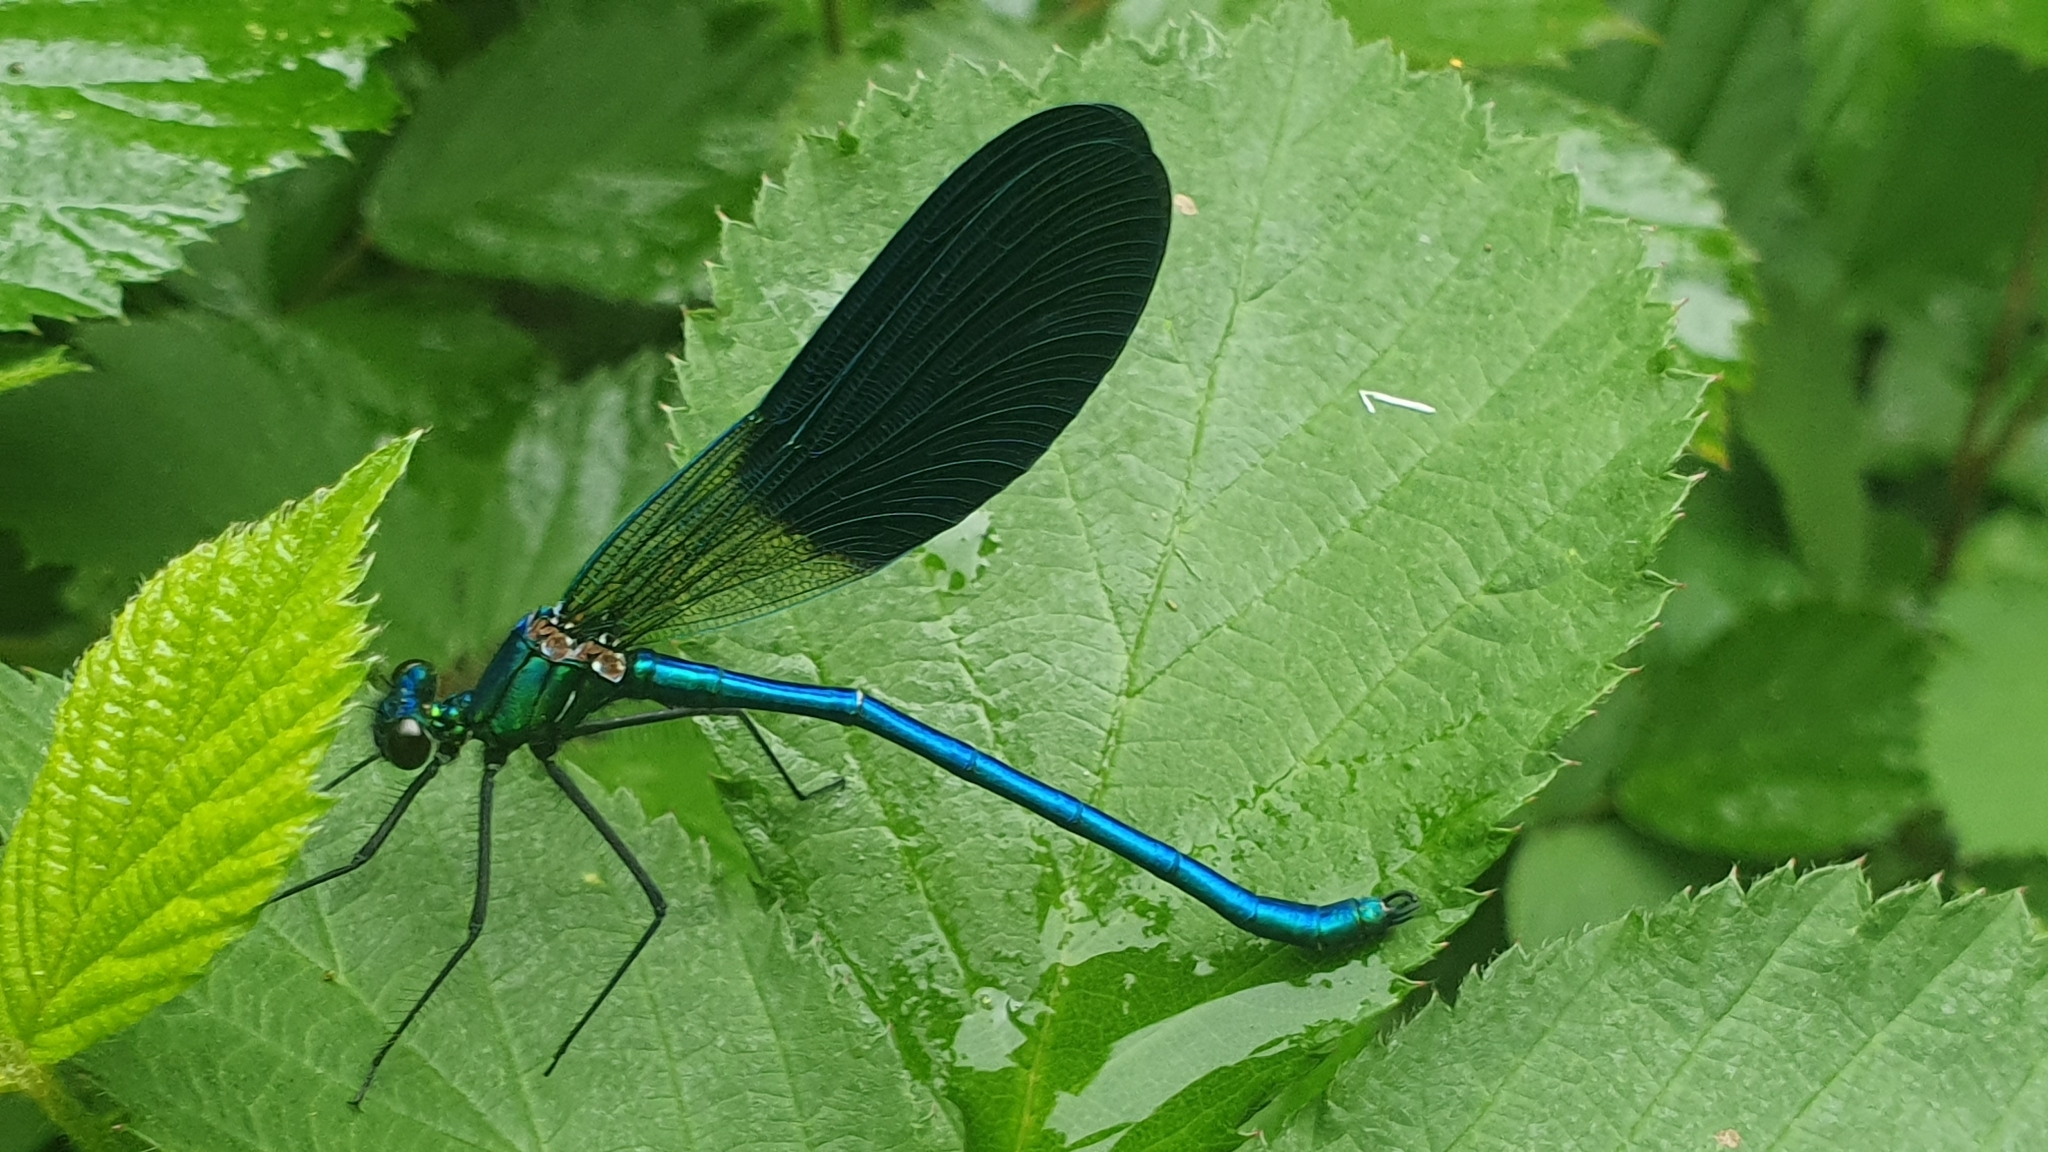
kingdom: Animalia
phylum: Arthropoda
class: Insecta
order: Odonata
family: Calopterygidae
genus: Calopteryx
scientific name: Calopteryx xanthostoma
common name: Western demoiselle
